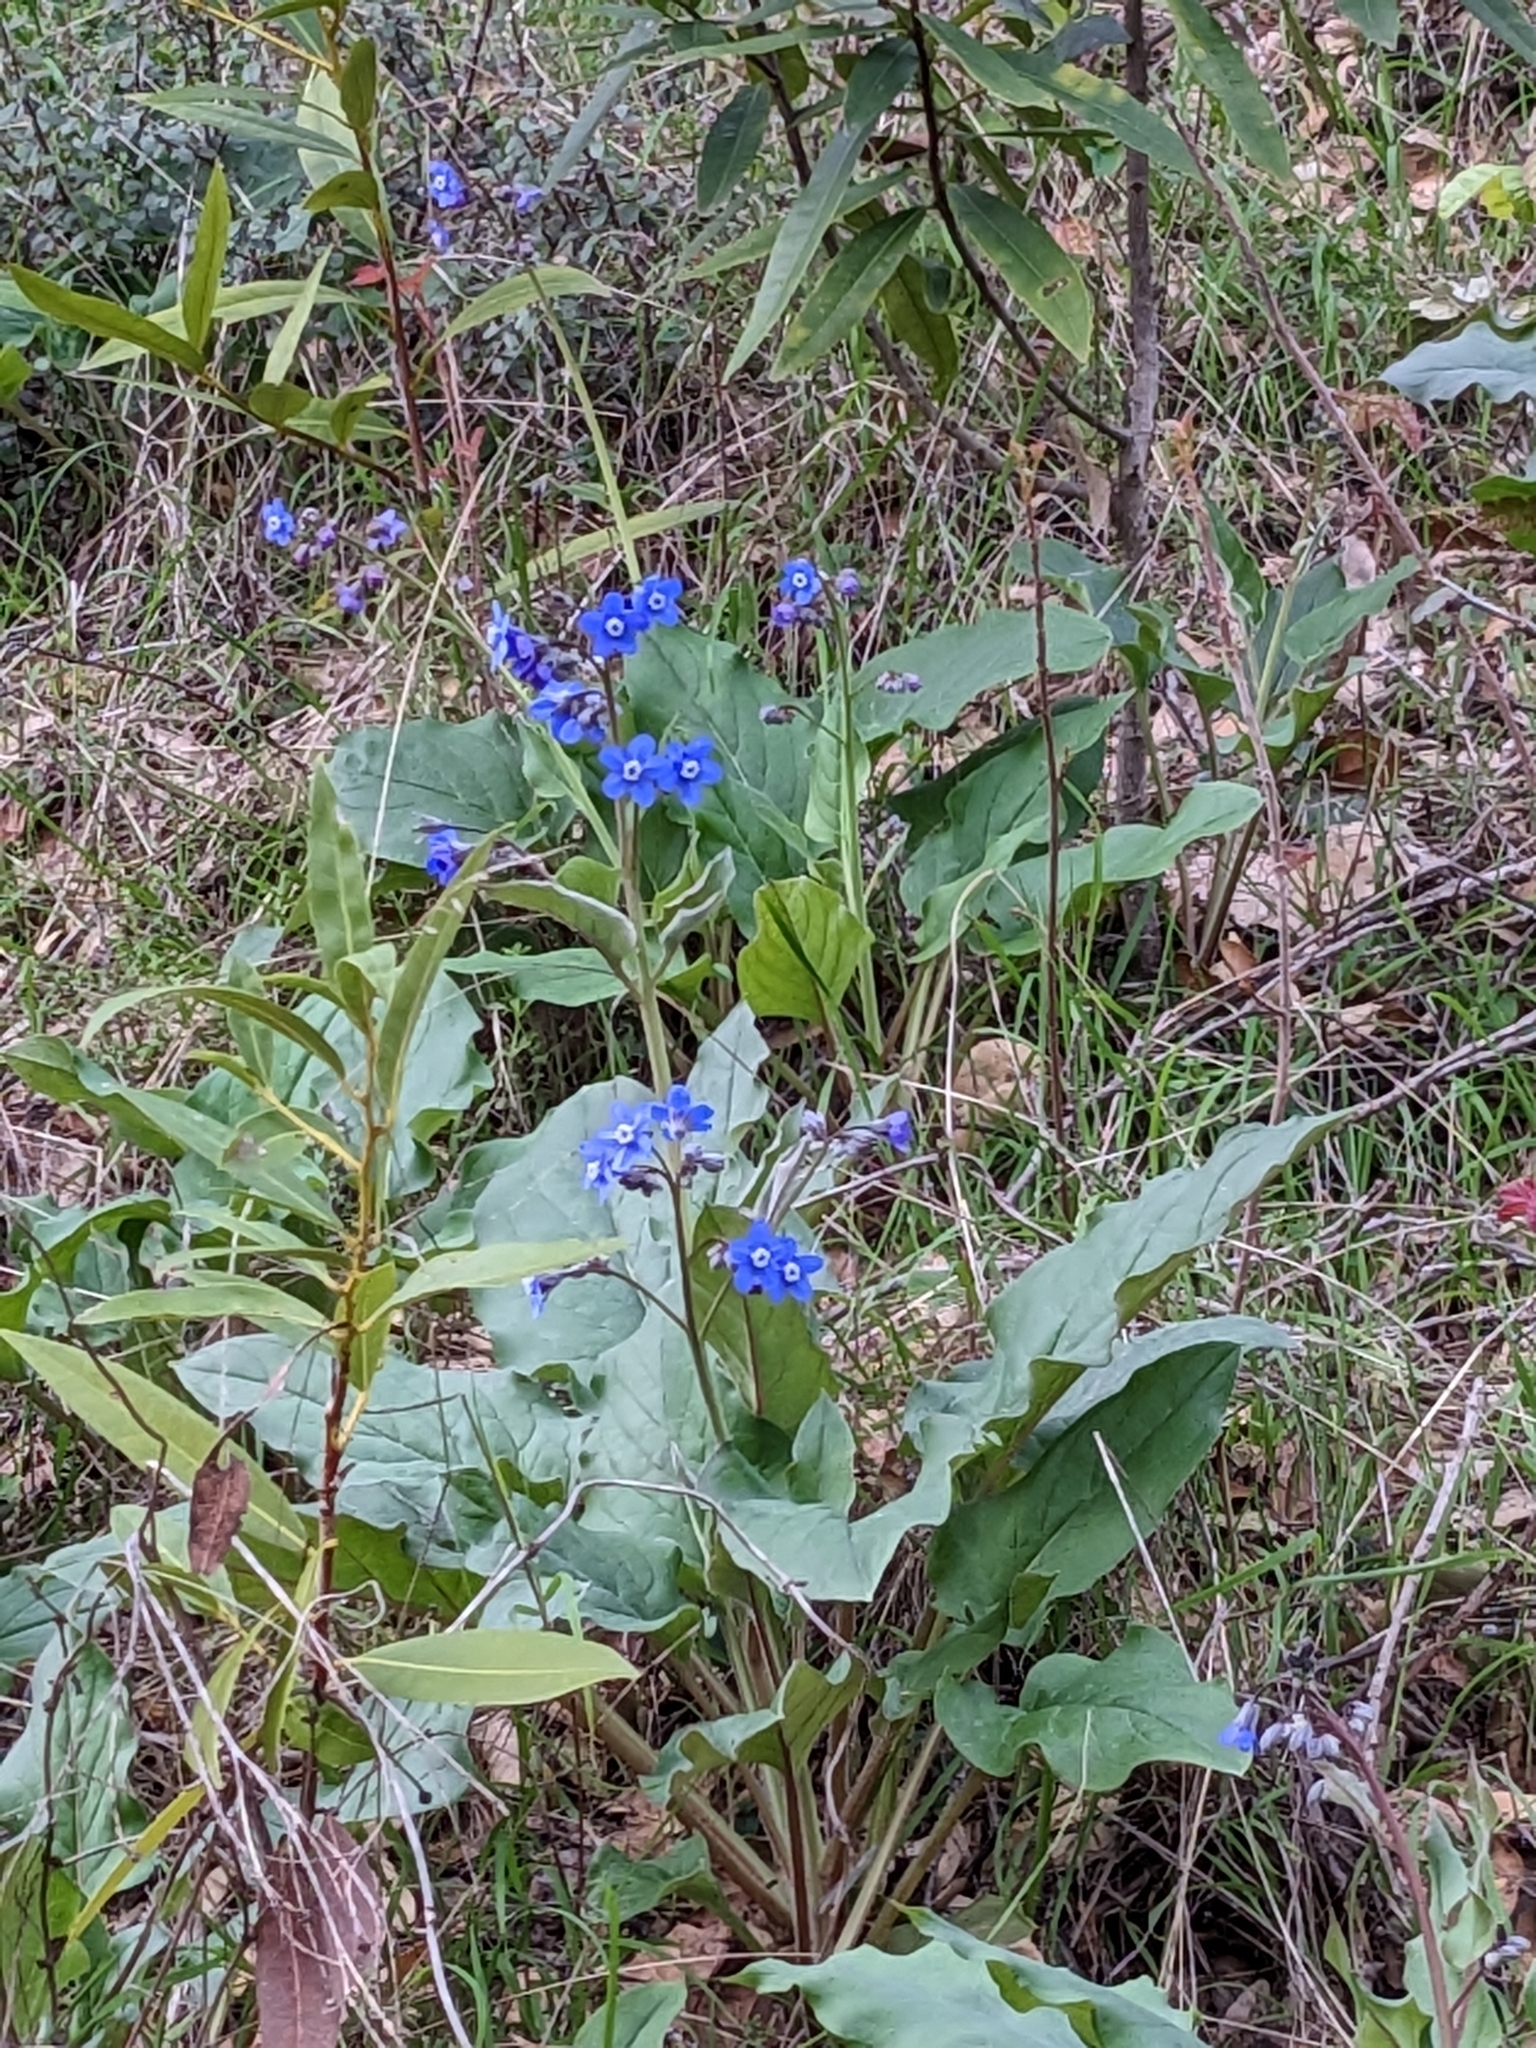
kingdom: Plantae
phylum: Tracheophyta
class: Magnoliopsida
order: Boraginales
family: Boraginaceae
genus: Adelinia
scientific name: Adelinia grande
